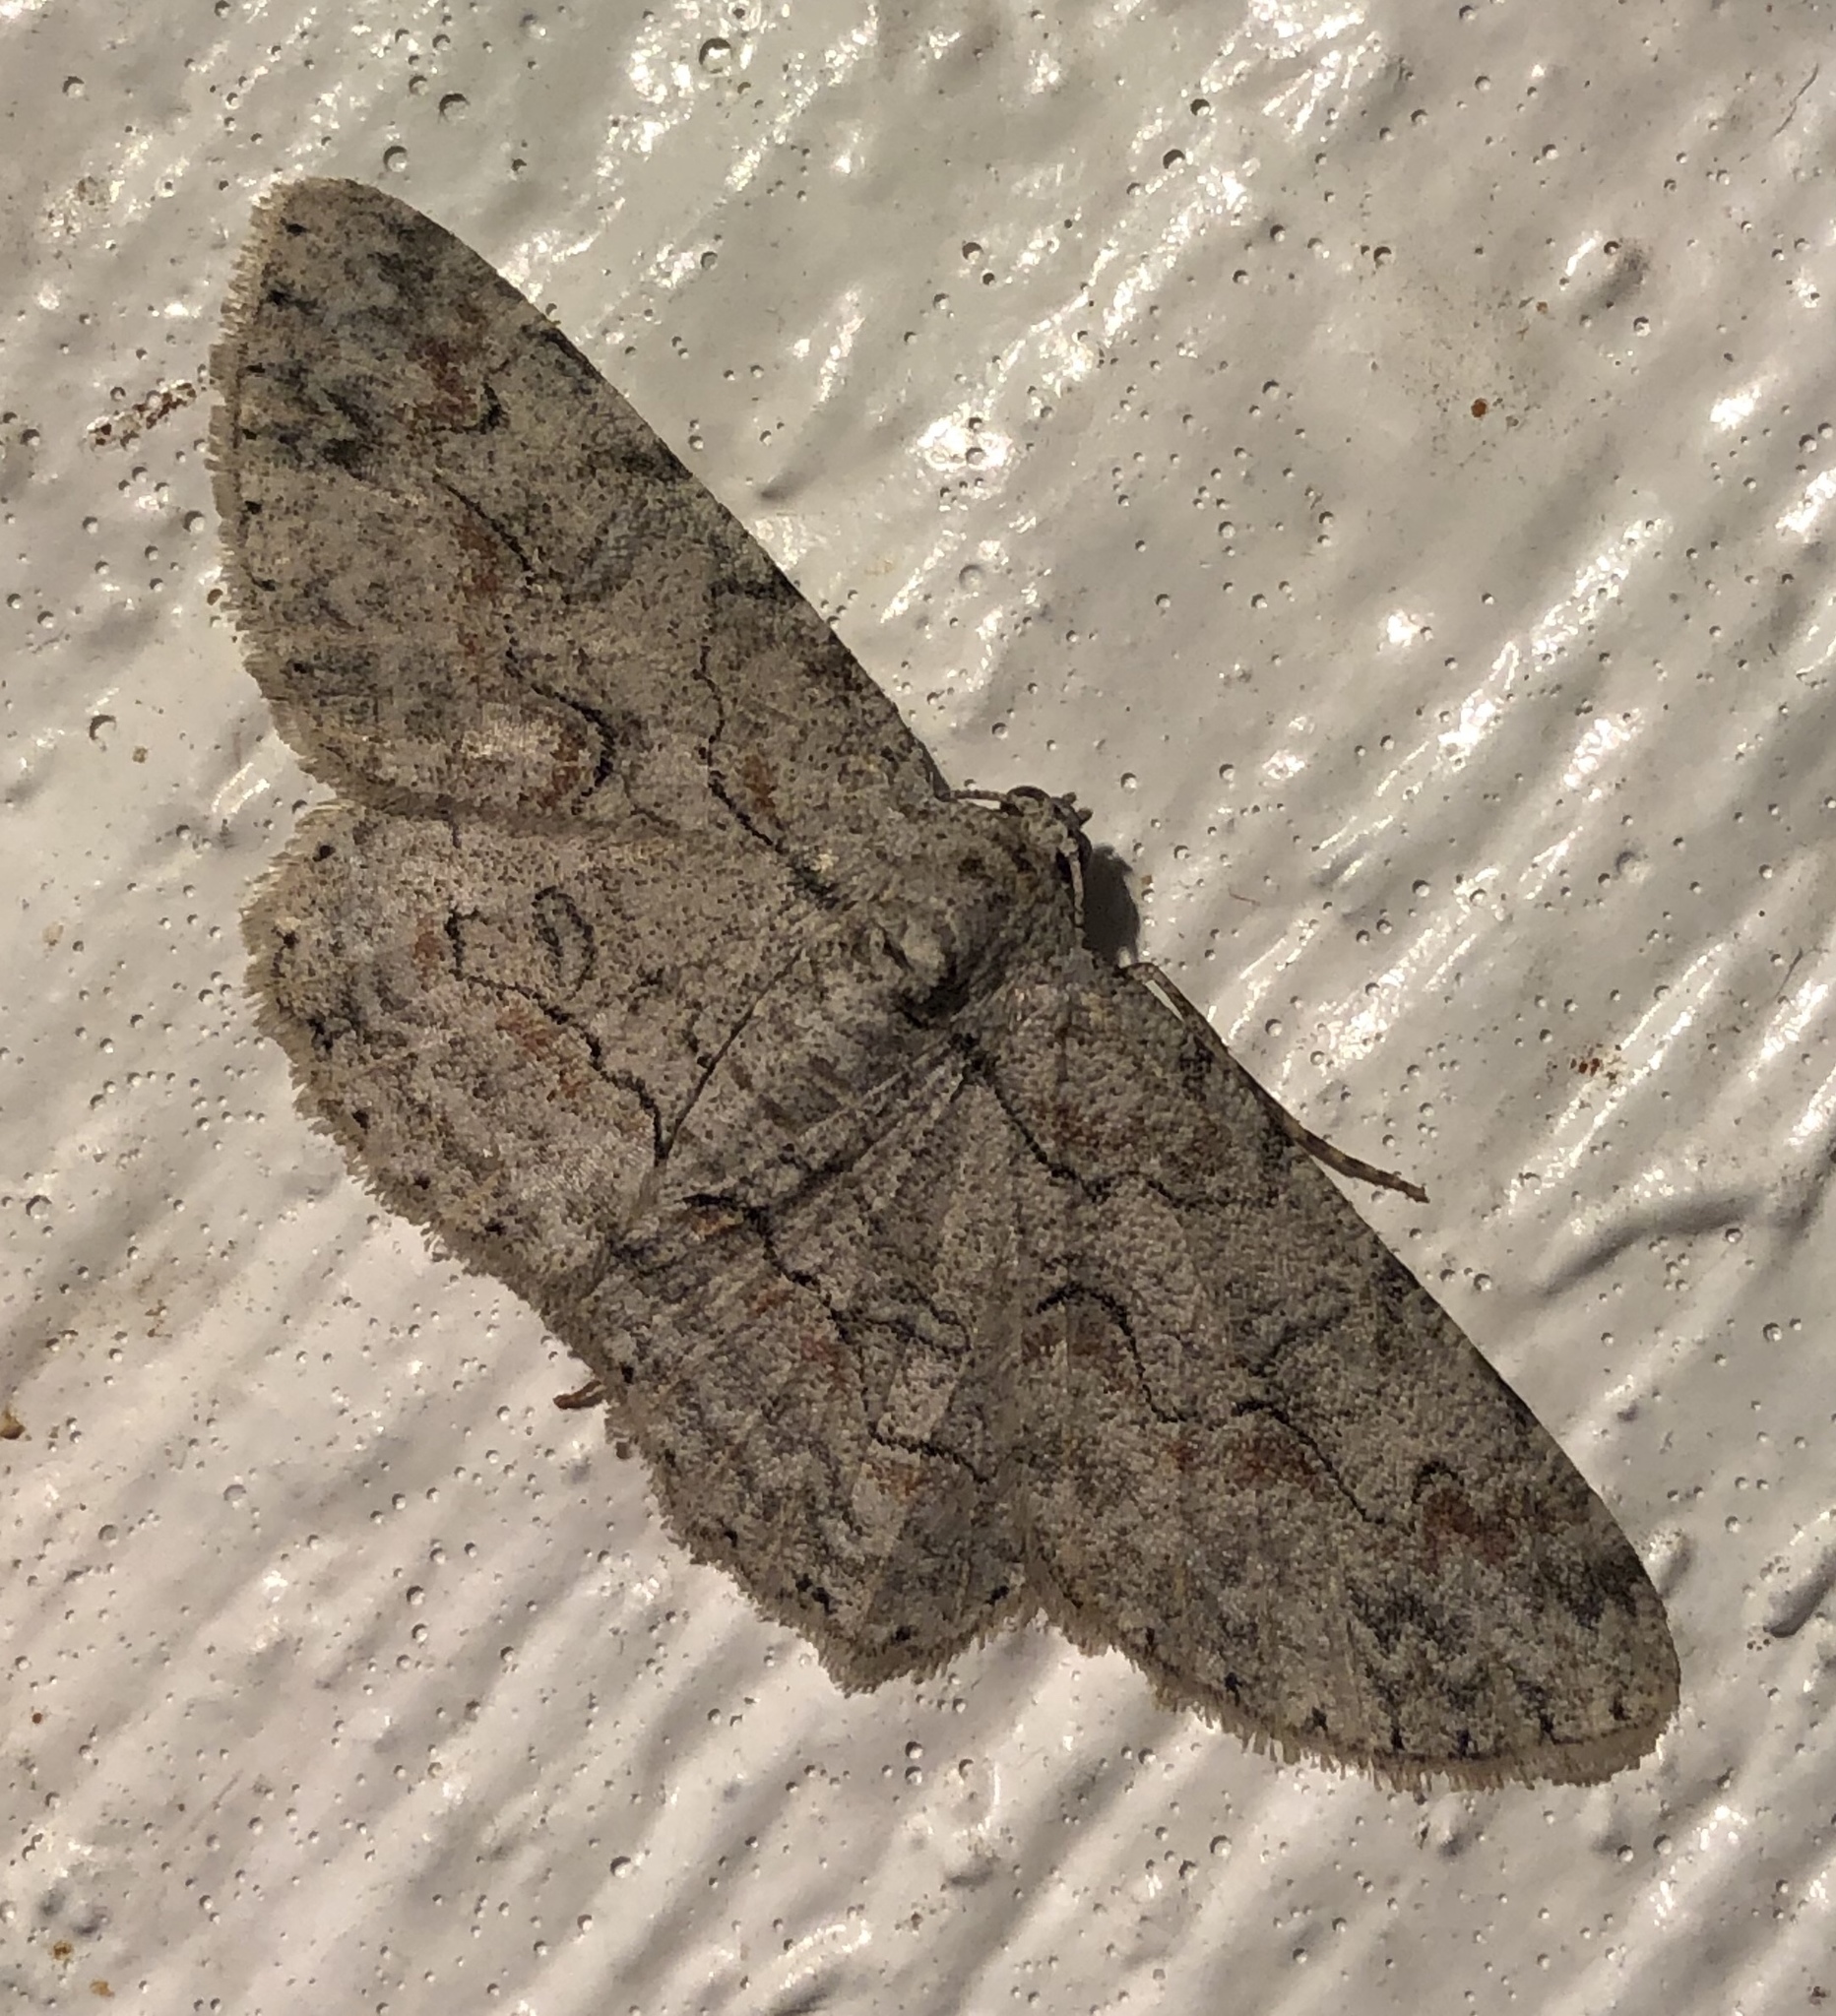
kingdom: Animalia
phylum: Arthropoda
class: Insecta
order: Lepidoptera
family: Geometridae
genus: Iridopsis
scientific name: Iridopsis defectaria
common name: Brown-shaded gray
